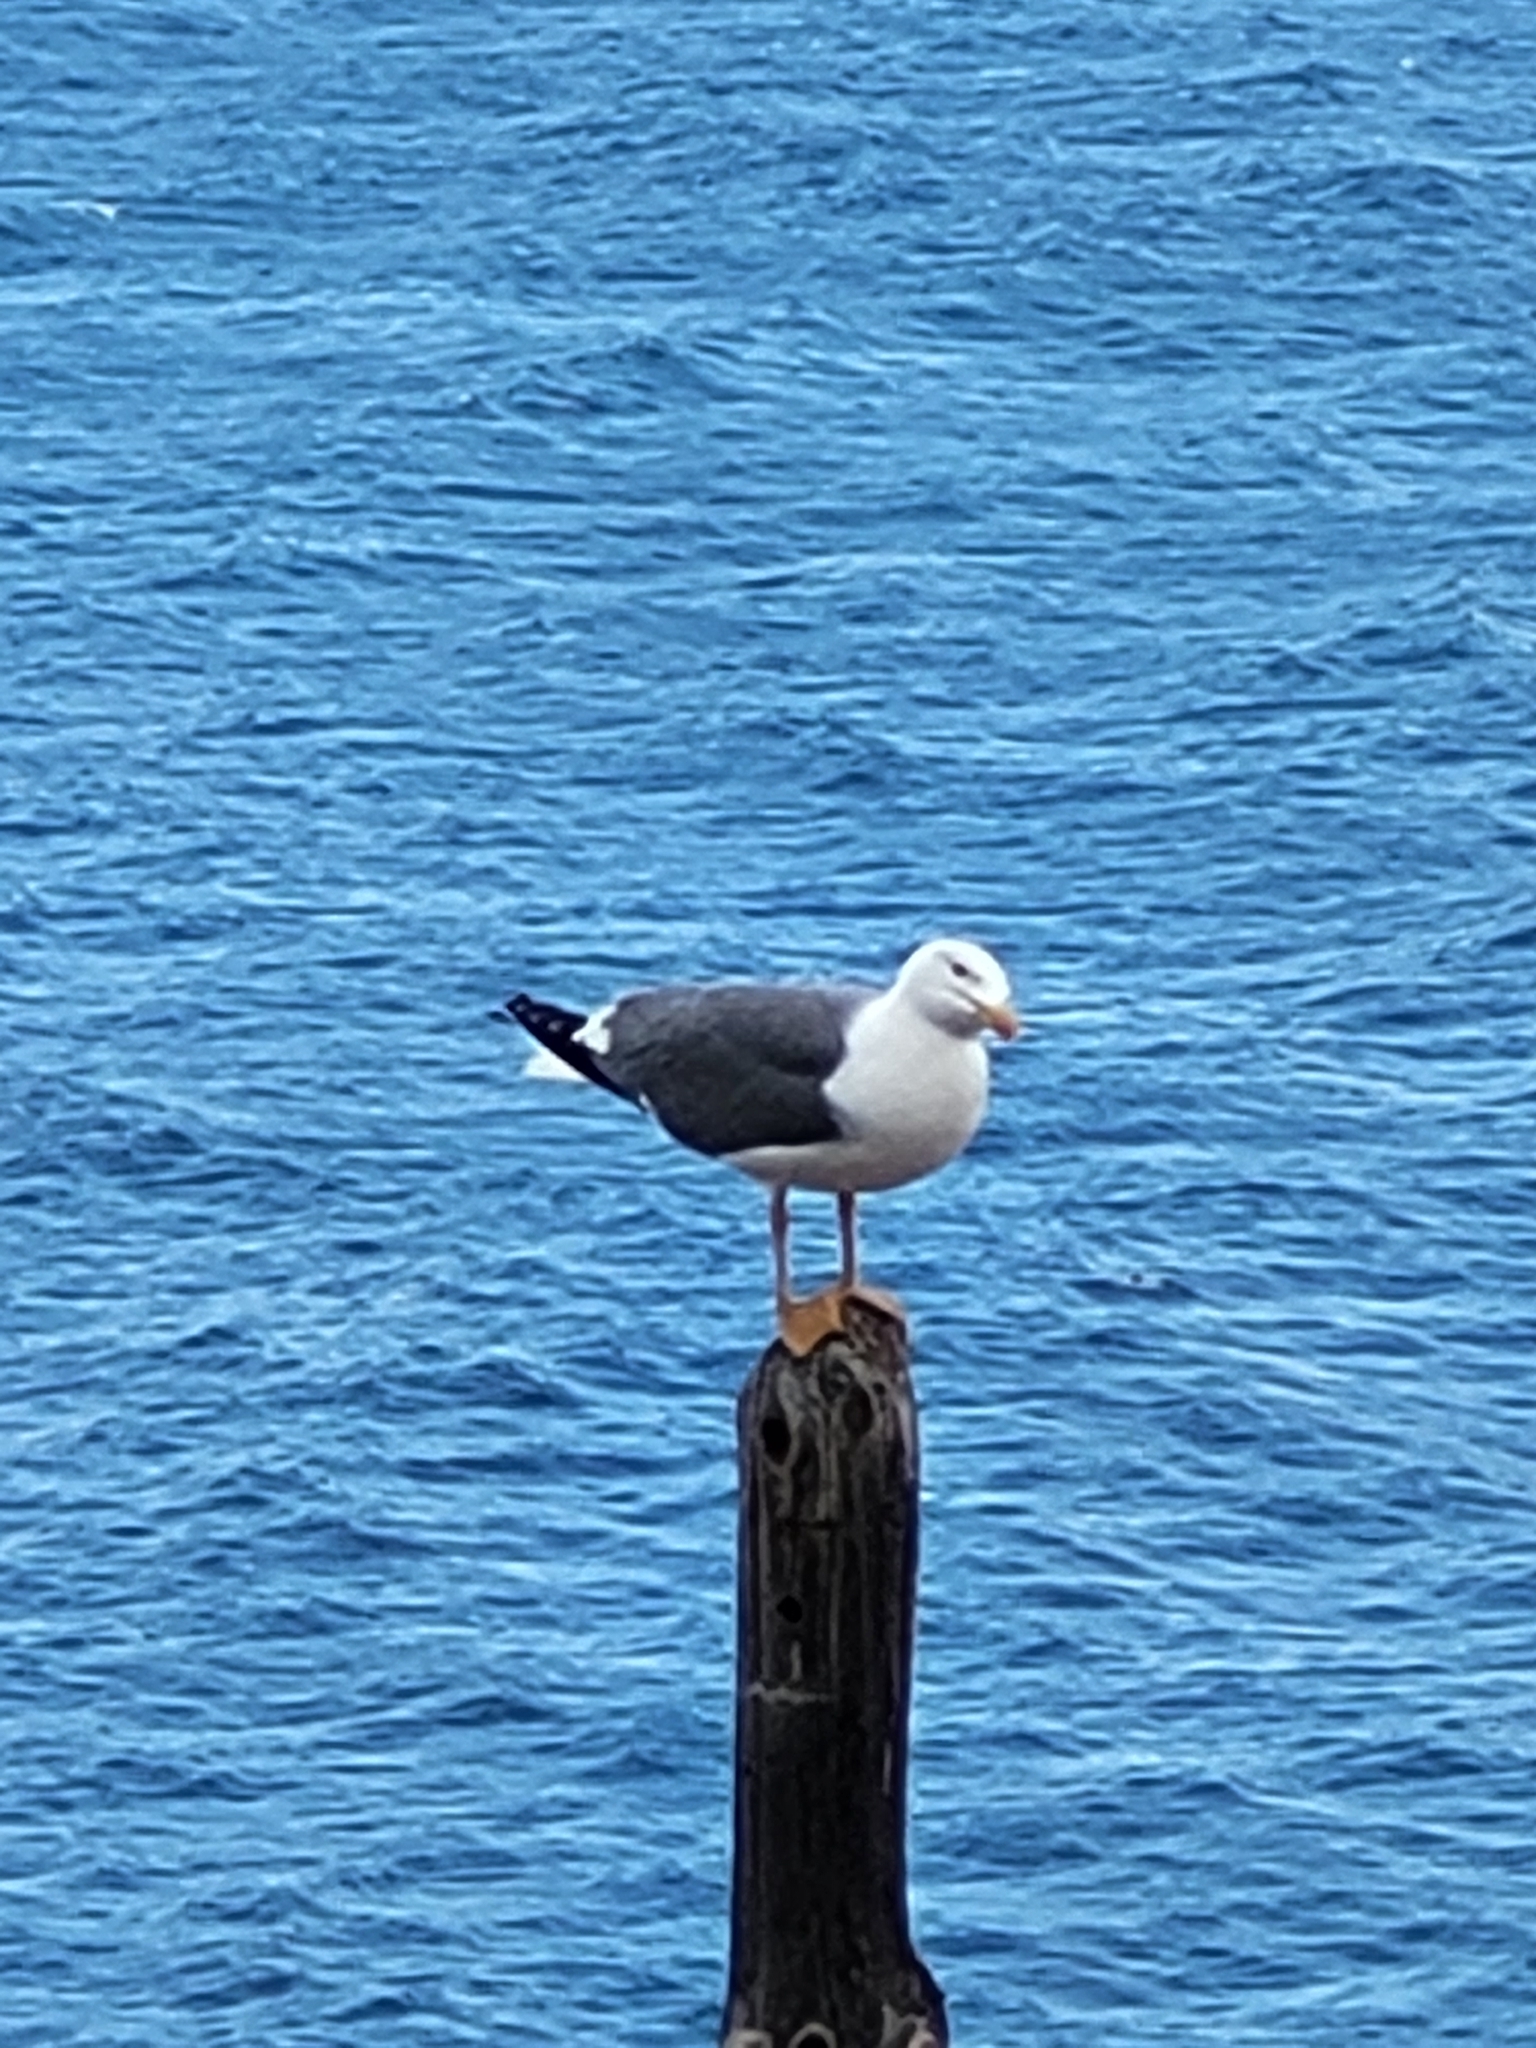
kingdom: Animalia
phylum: Chordata
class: Aves
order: Charadriiformes
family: Laridae
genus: Larus
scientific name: Larus michahellis
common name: Yellow-legged gull
